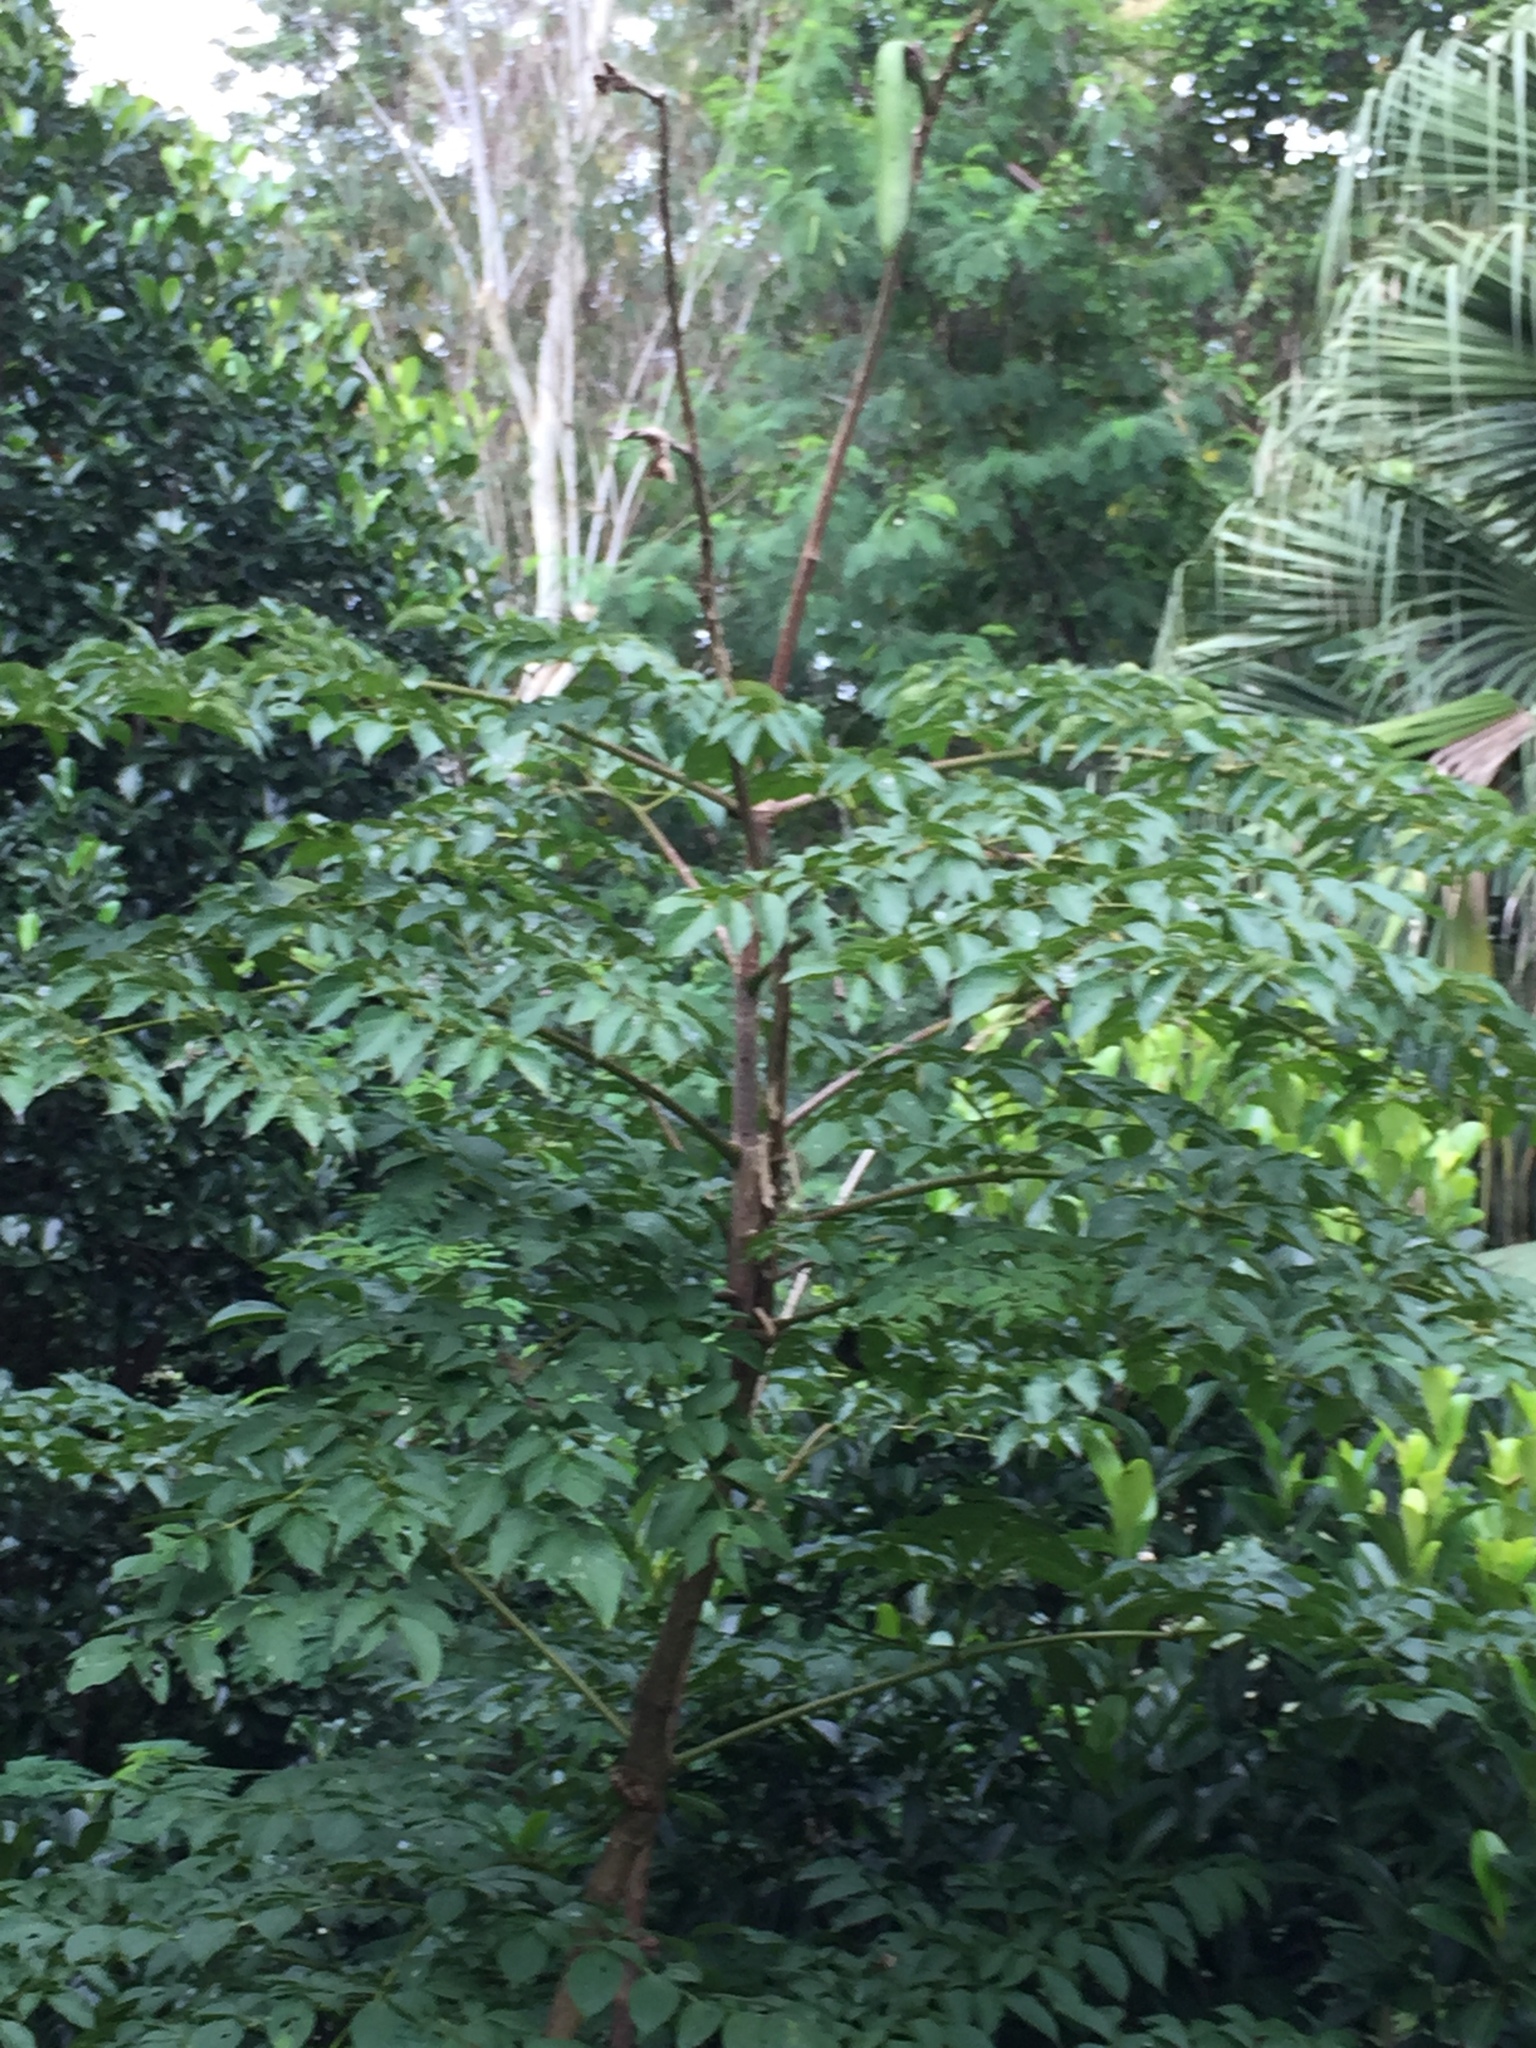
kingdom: Plantae
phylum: Tracheophyta
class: Magnoliopsida
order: Lamiales
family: Bignoniaceae
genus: Oroxylum
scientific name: Oroxylum indicum
